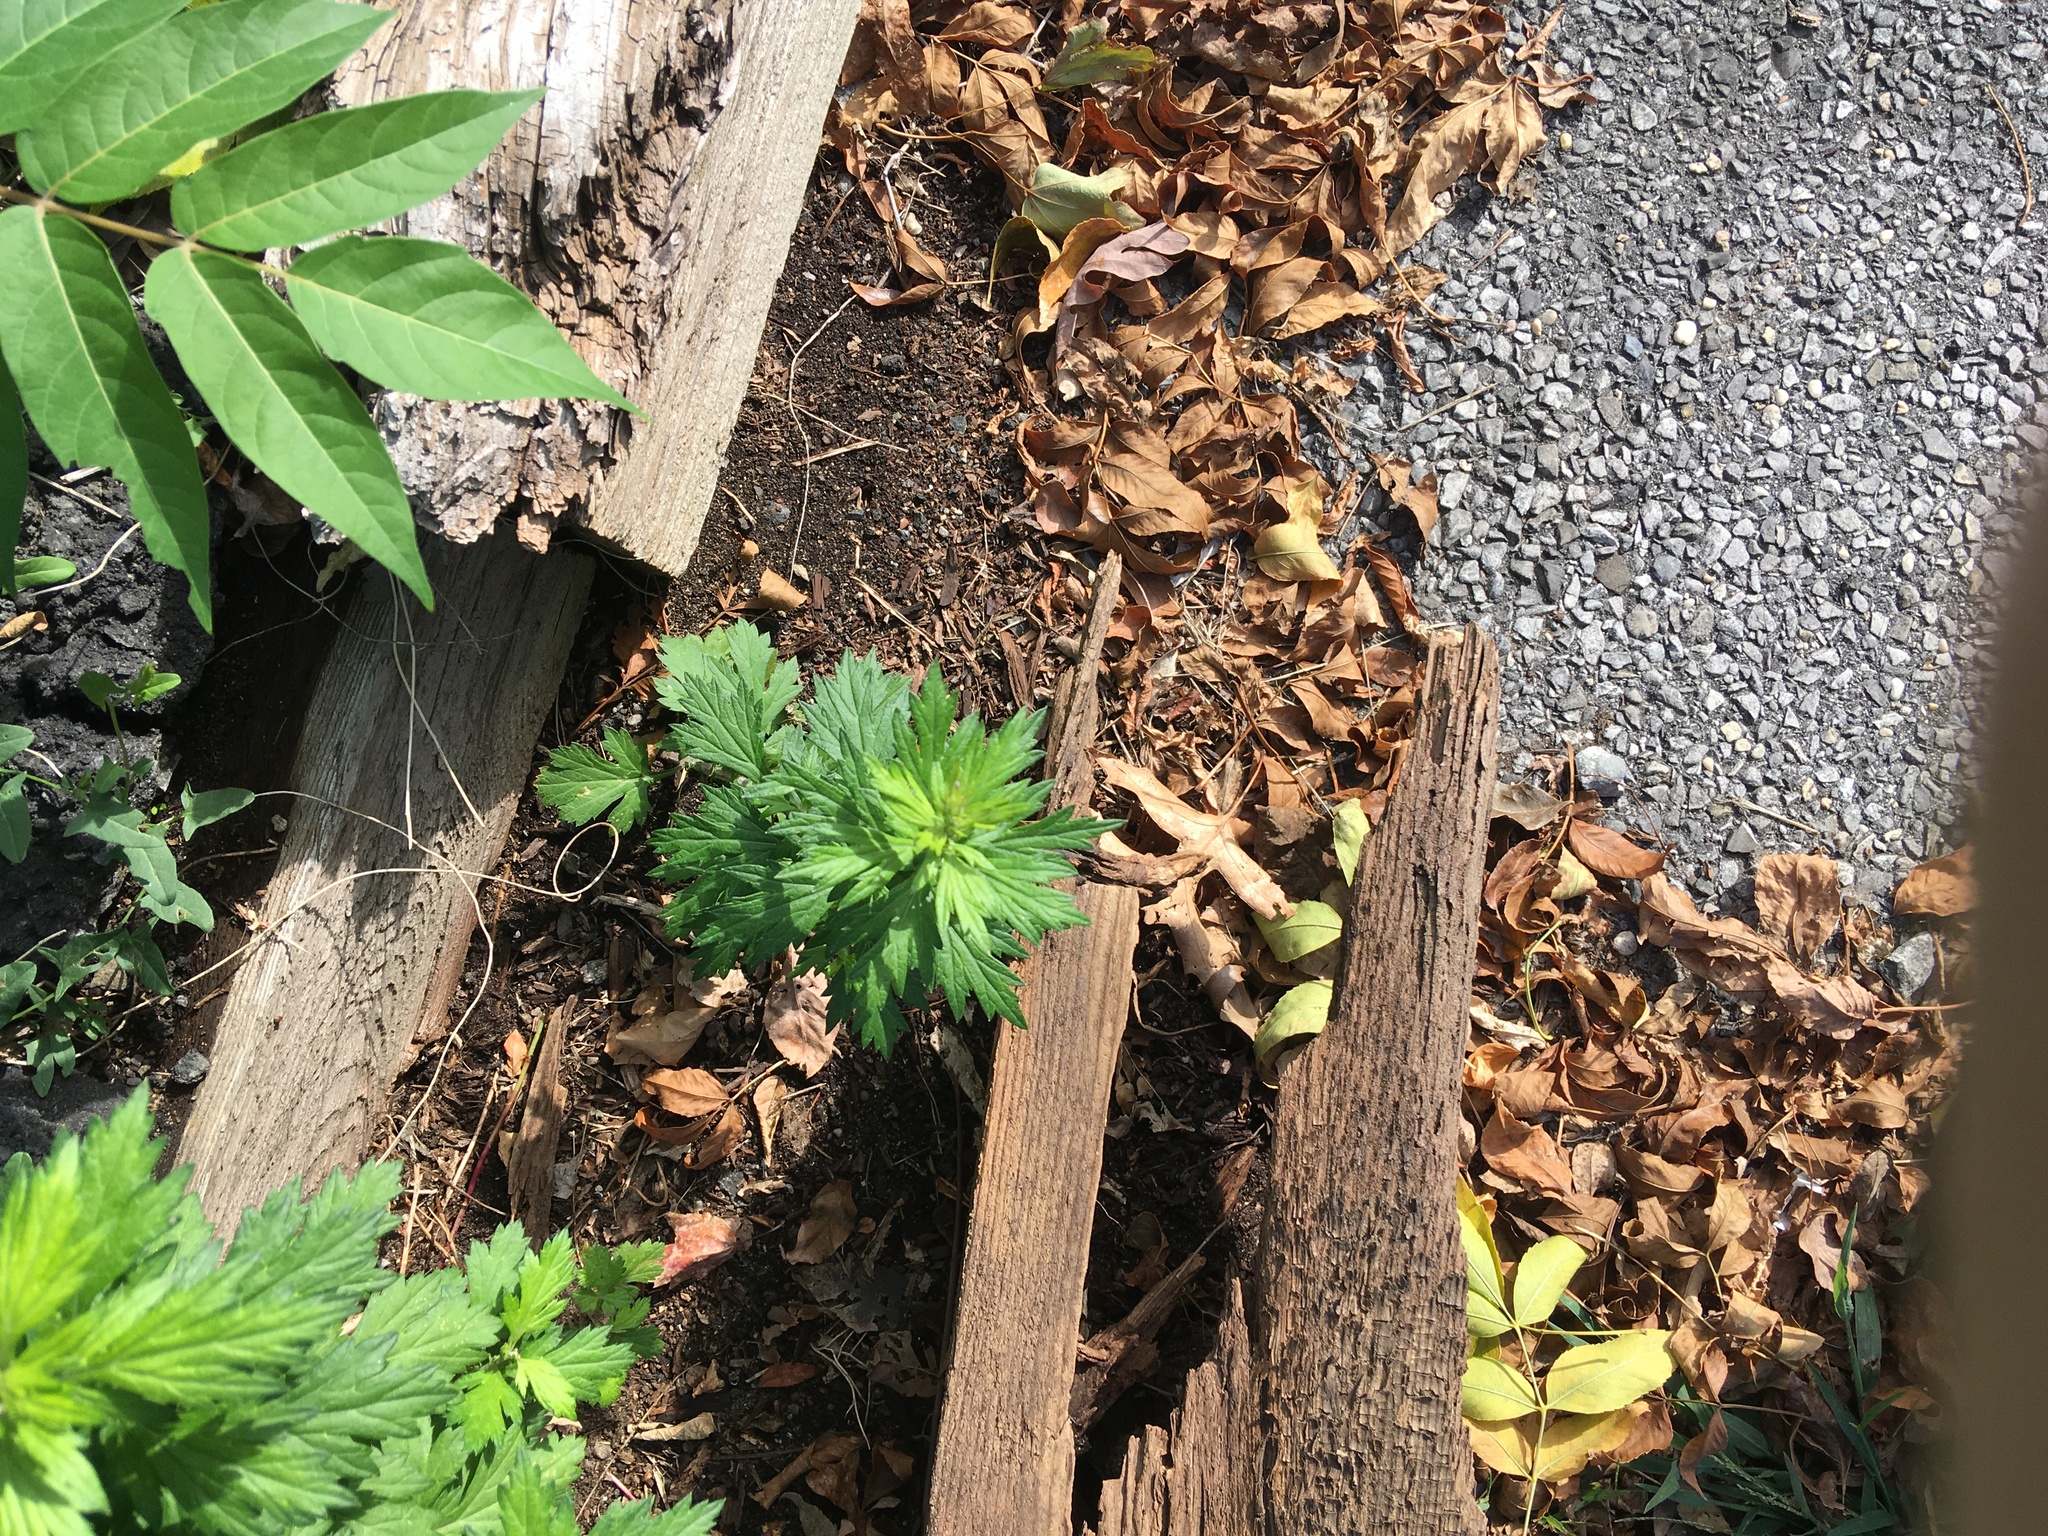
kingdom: Plantae
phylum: Tracheophyta
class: Magnoliopsida
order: Asterales
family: Asteraceae
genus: Artemisia
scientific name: Artemisia vulgaris
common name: Mugwort
